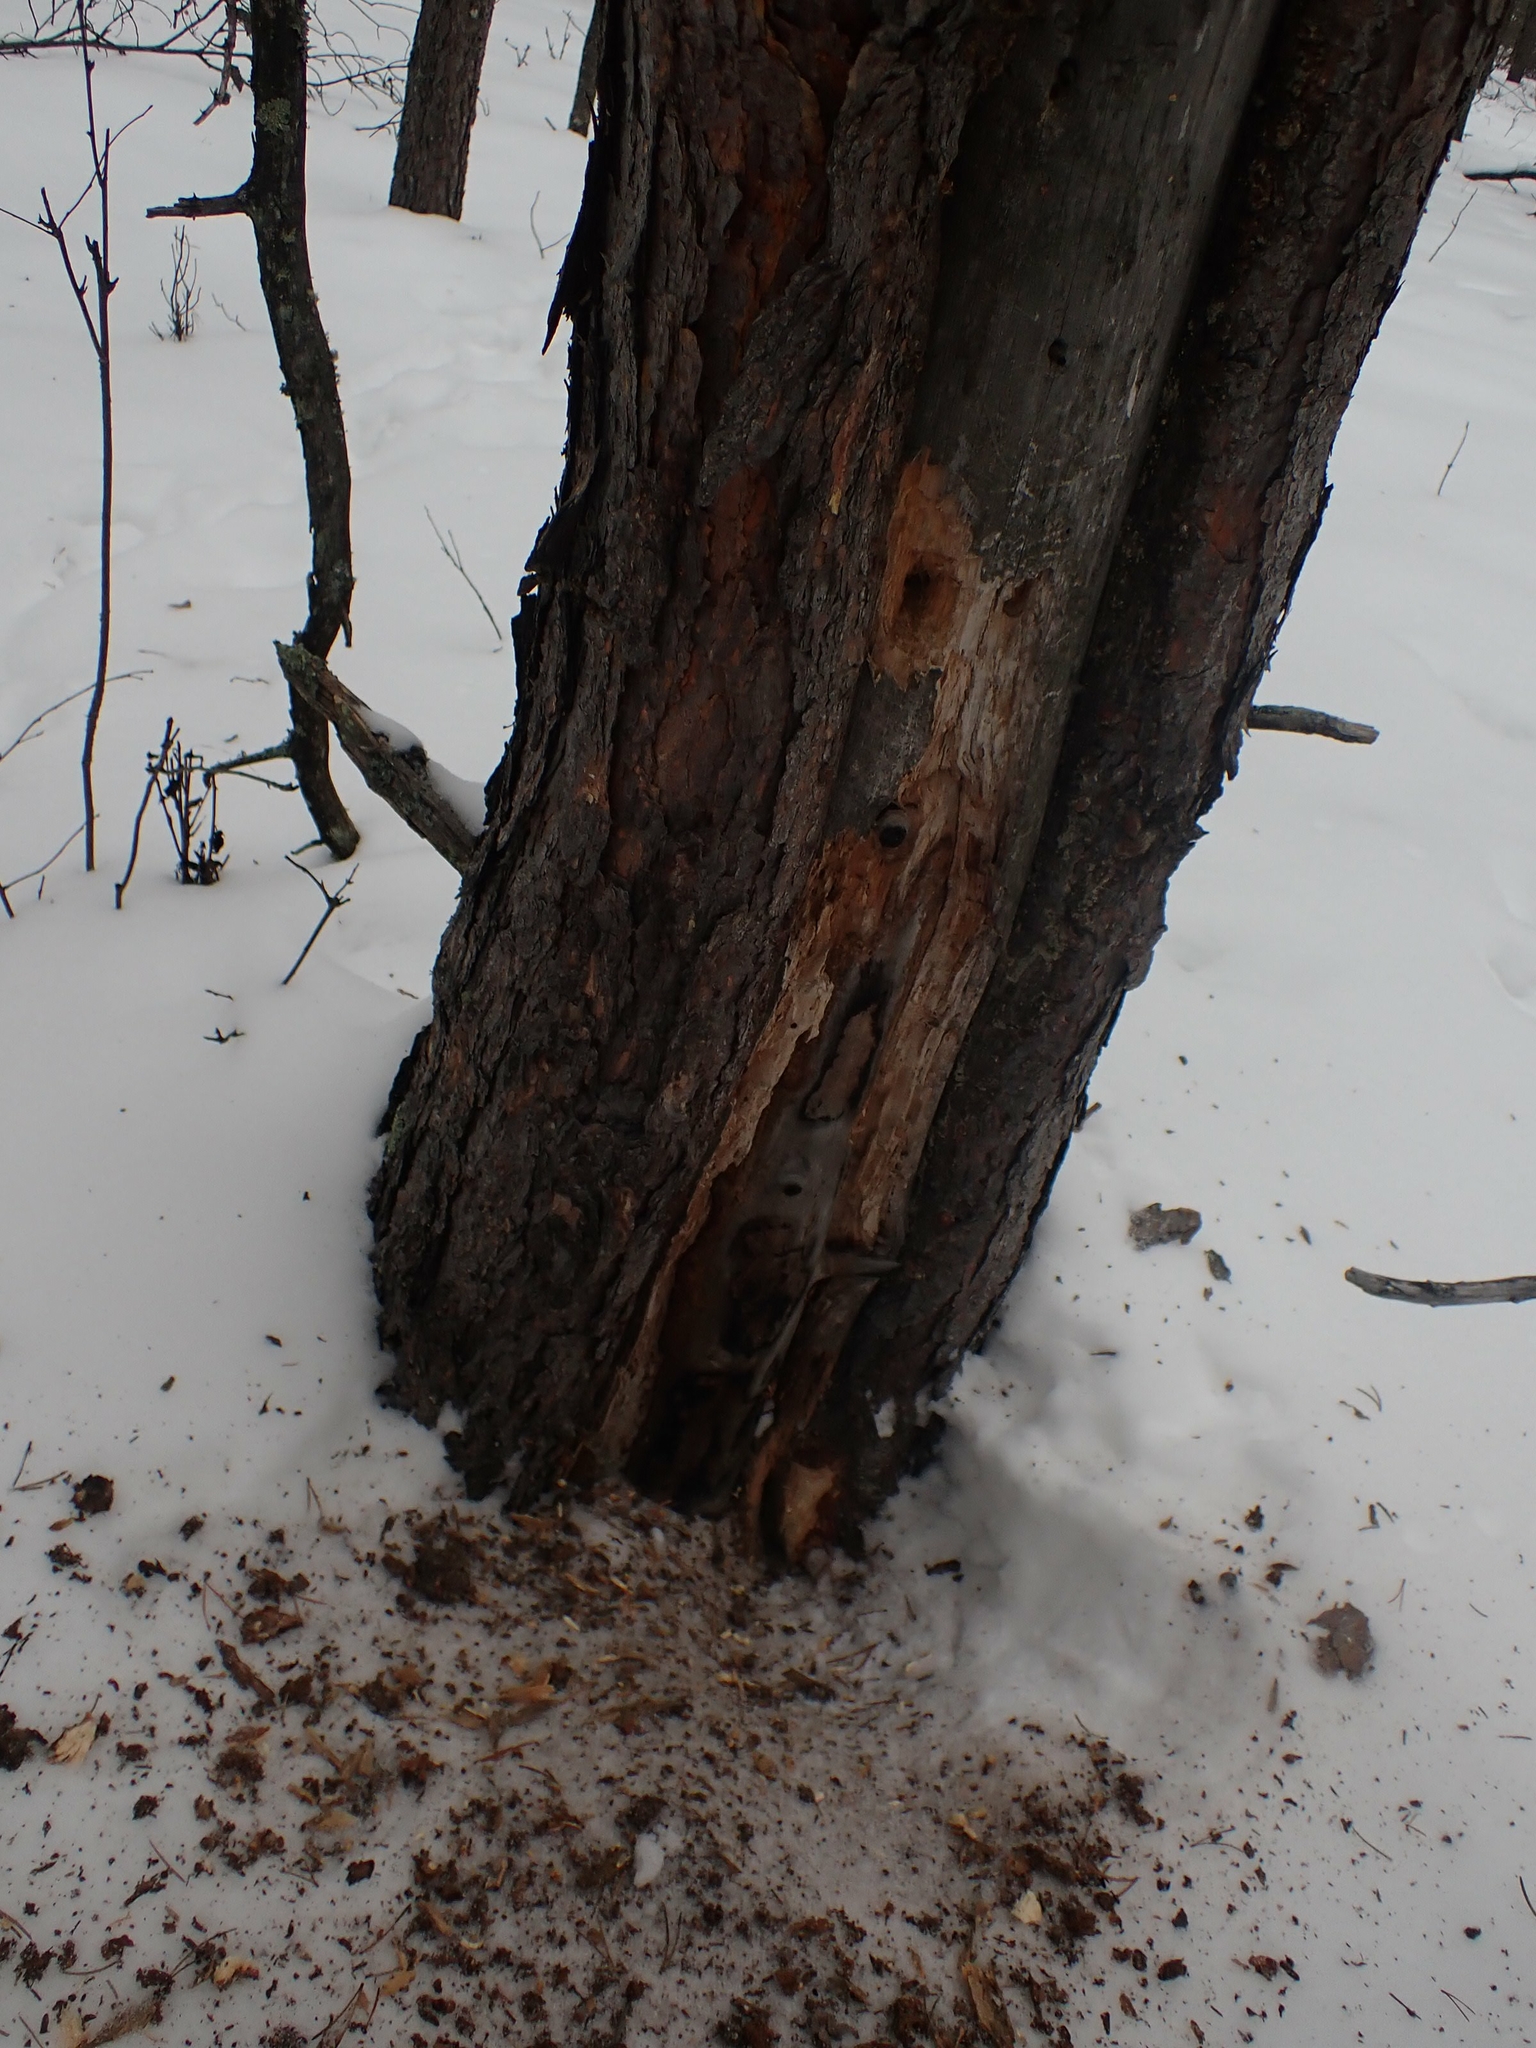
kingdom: Animalia
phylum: Chordata
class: Aves
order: Piciformes
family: Picidae
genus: Dryocopus
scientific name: Dryocopus pileatus
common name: Pileated woodpecker
